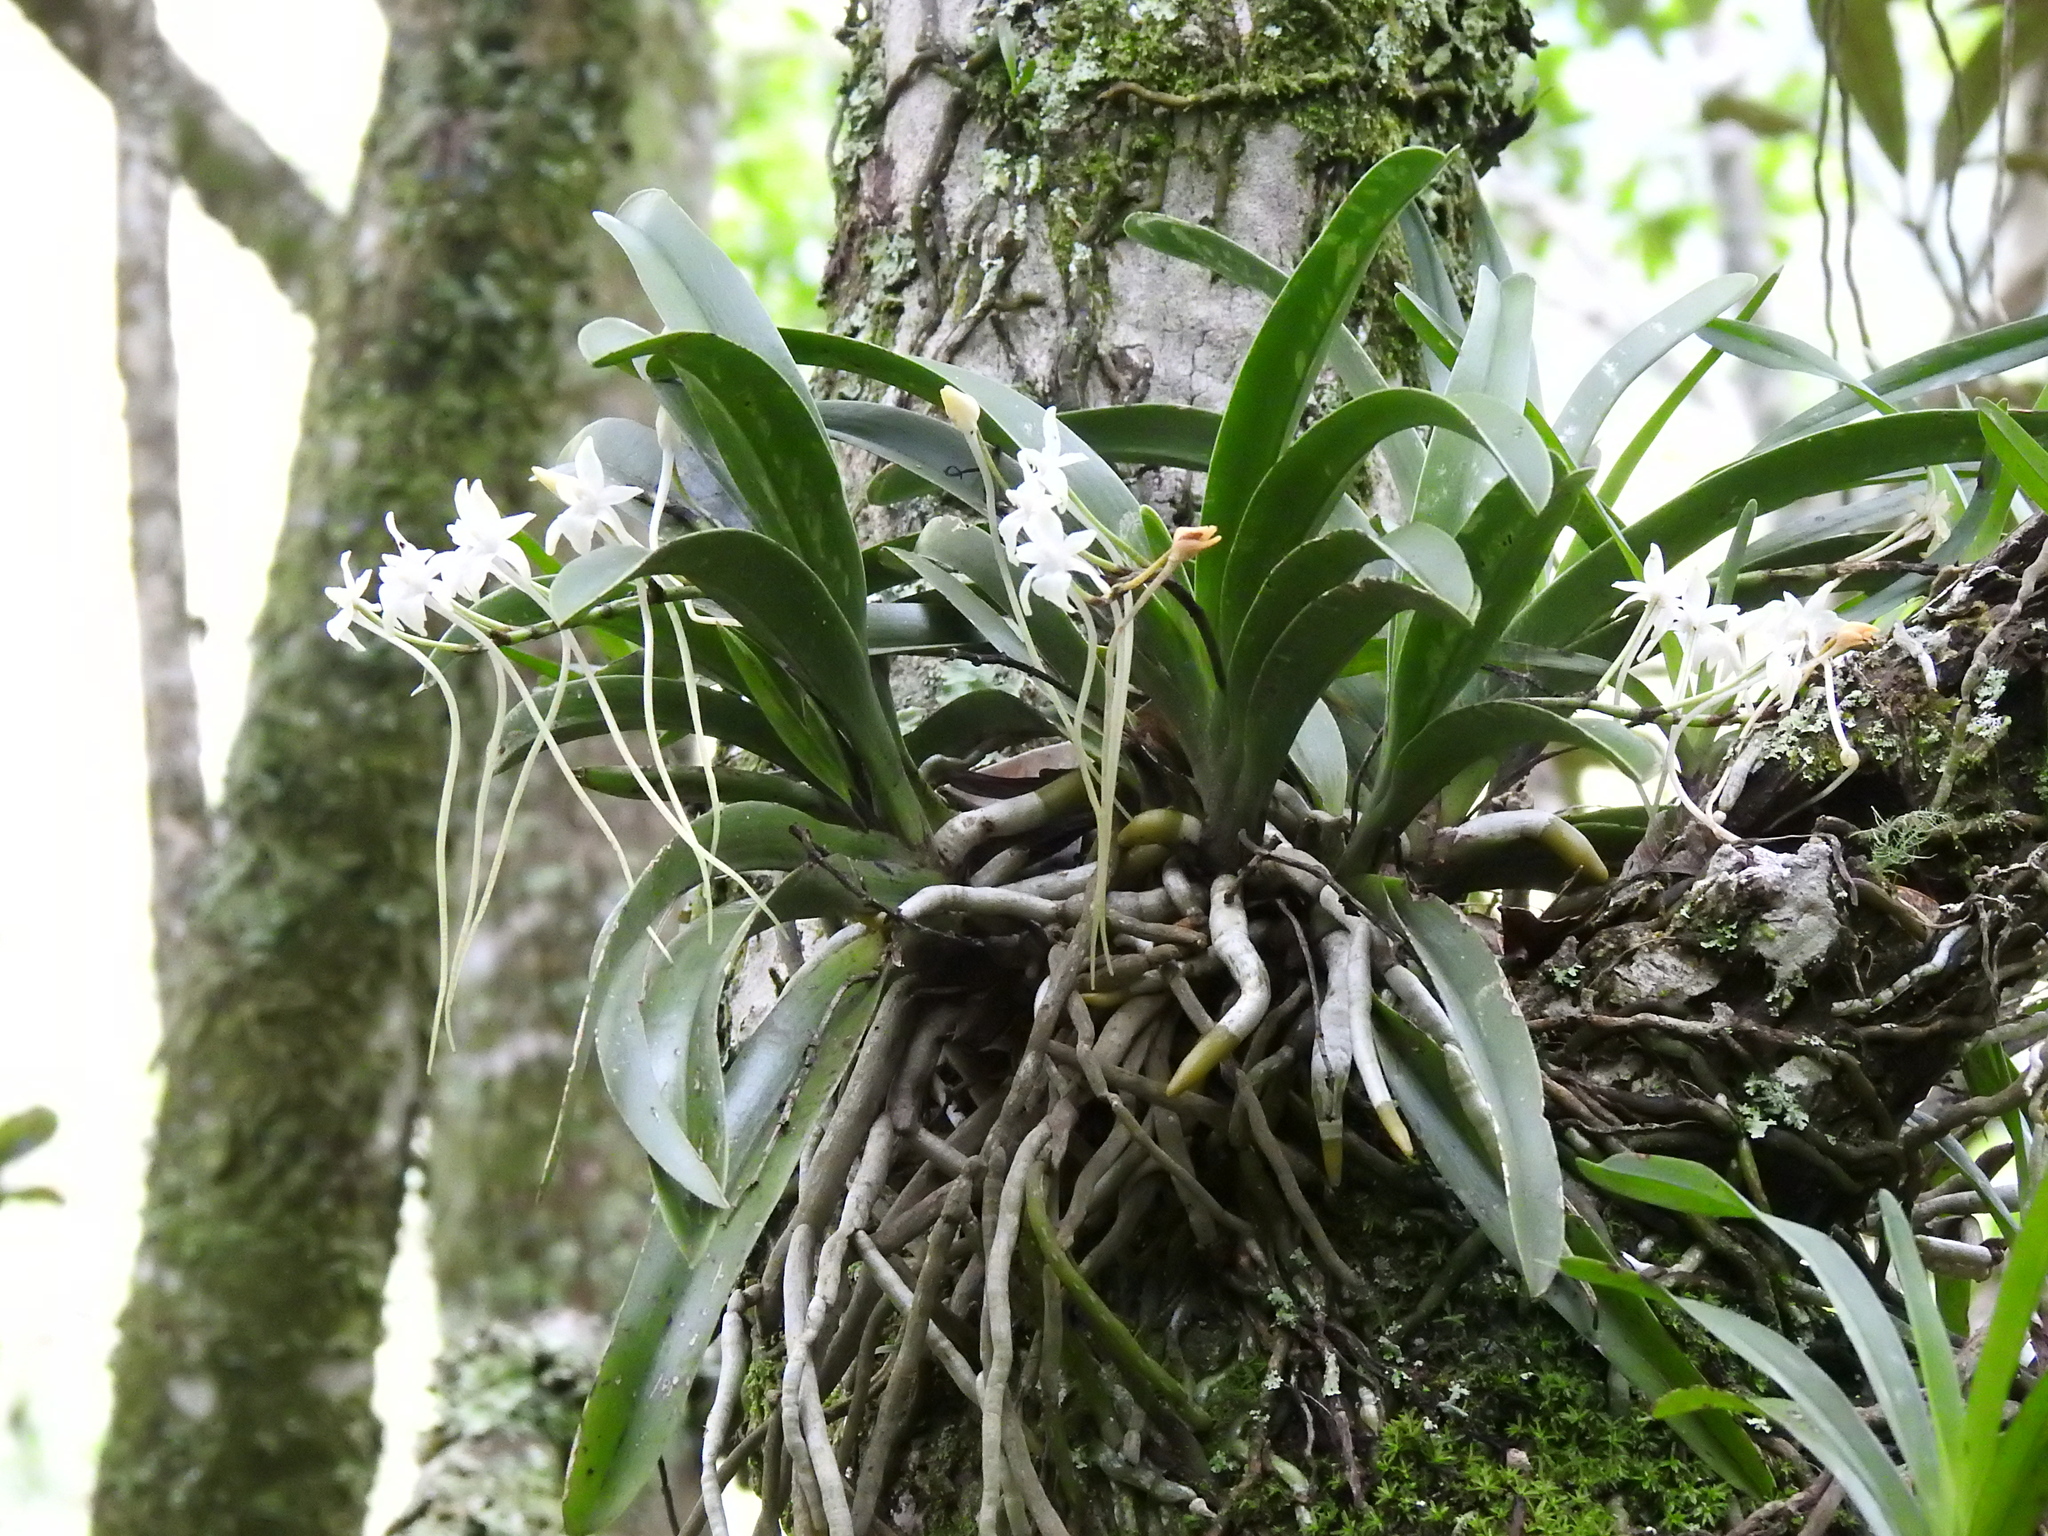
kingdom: Plantae
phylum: Tracheophyta
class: Liliopsida
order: Asparagales
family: Orchidaceae
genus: Rangaeris
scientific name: Rangaeris muscicola
